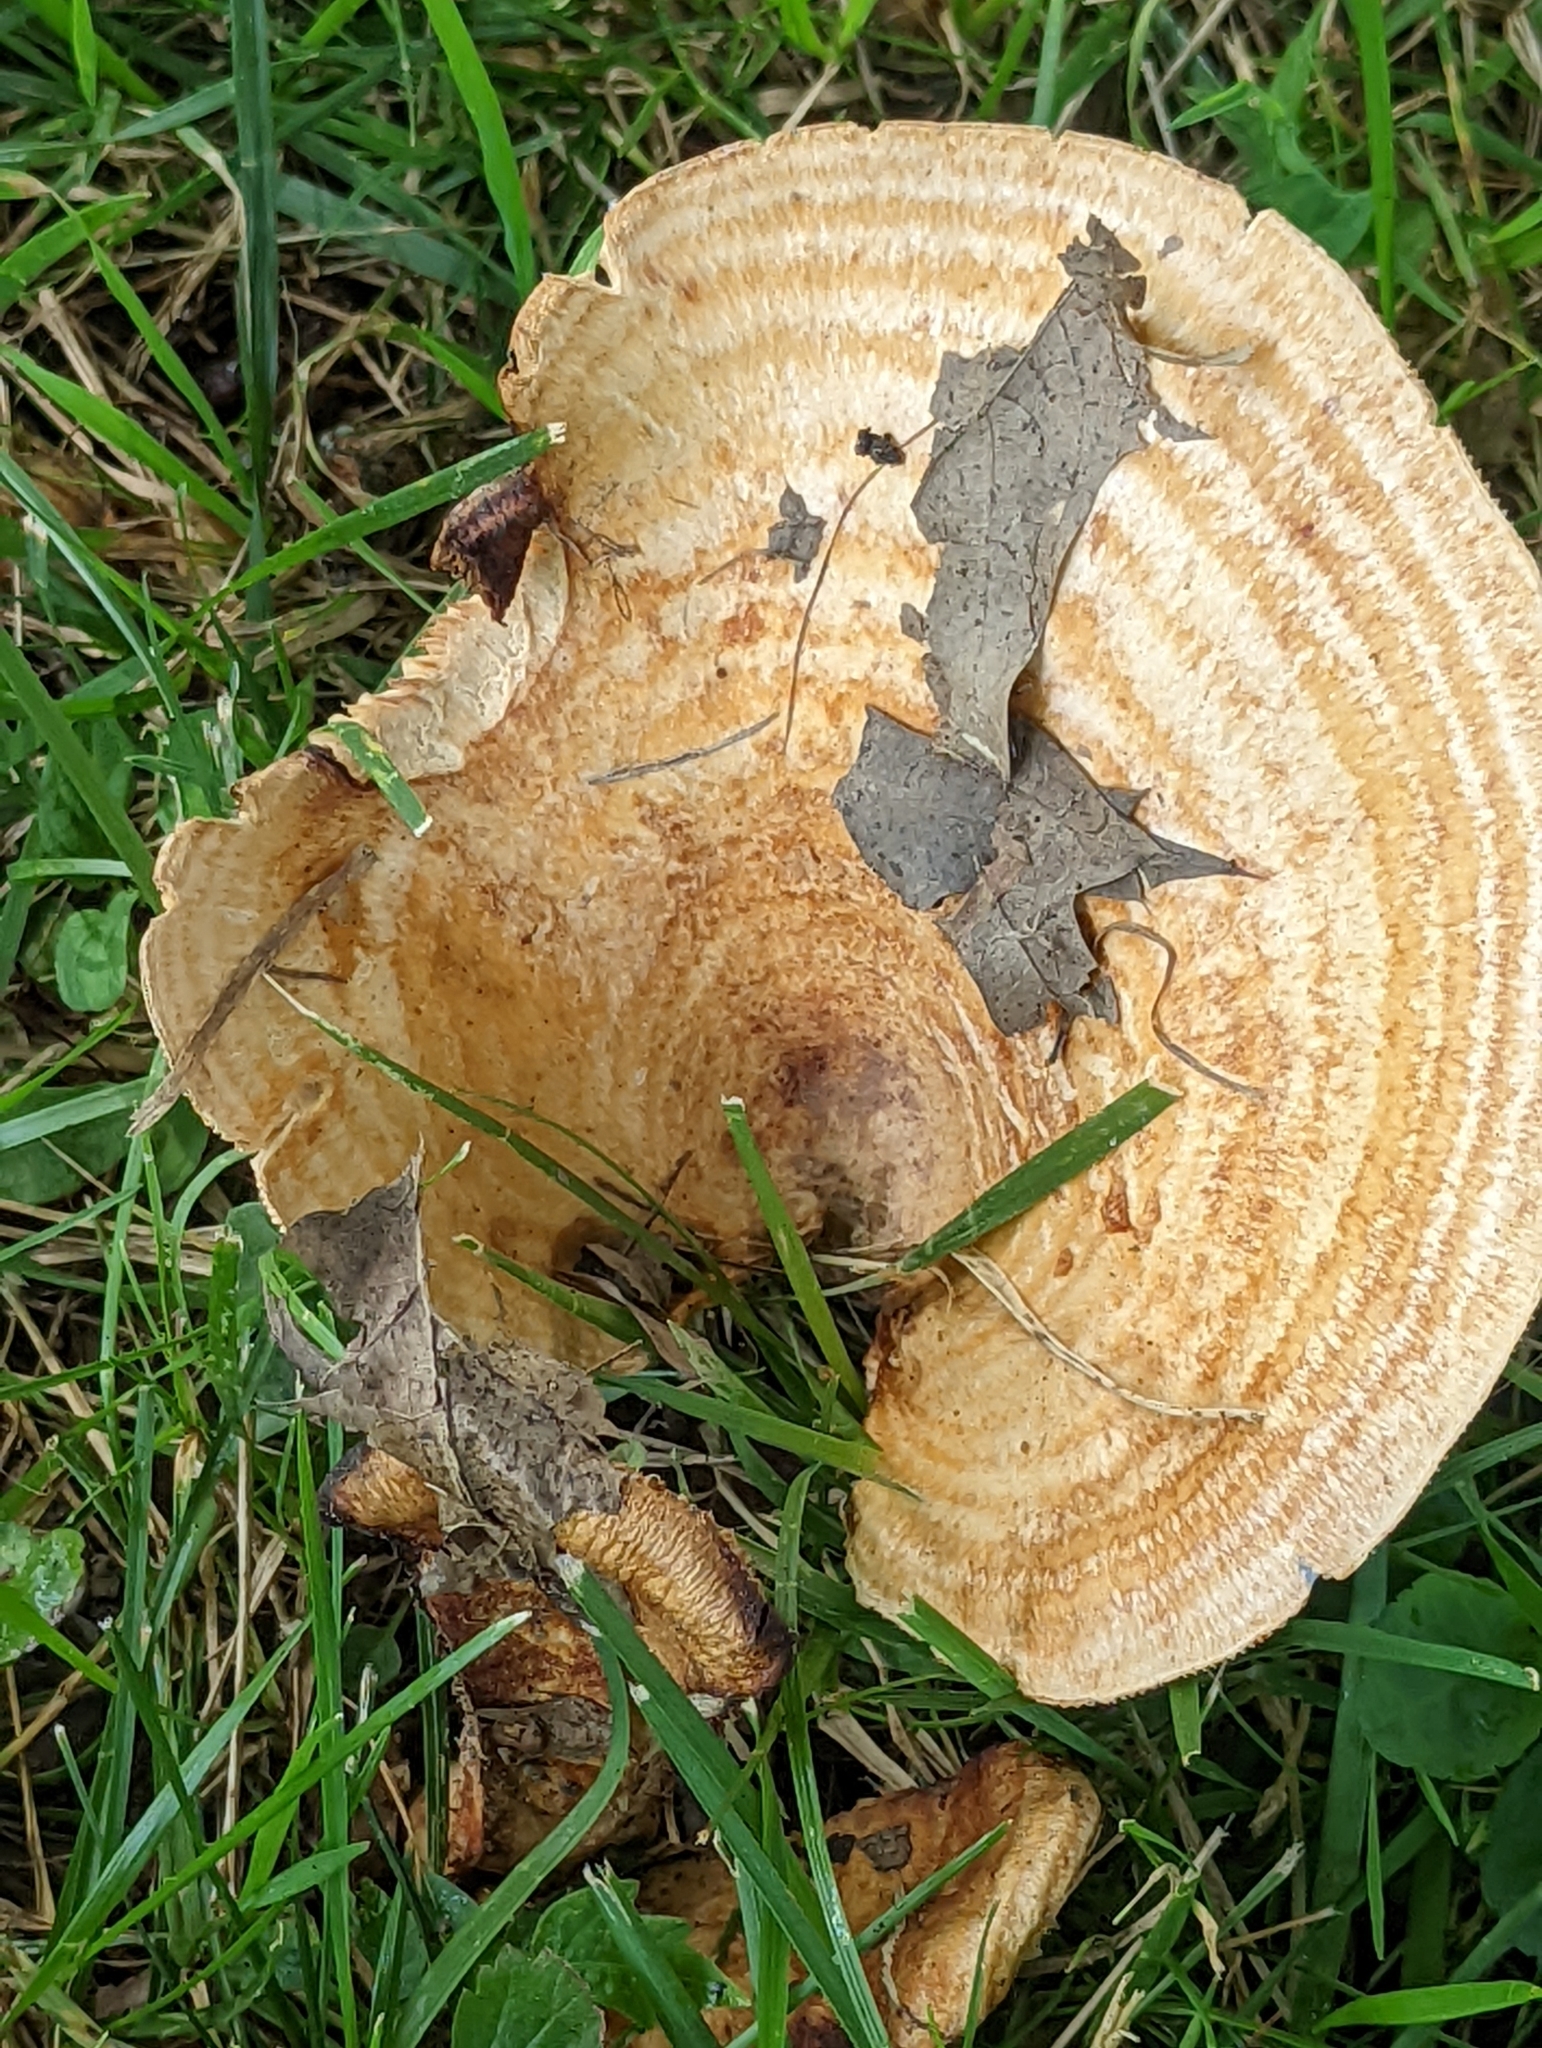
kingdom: Fungi
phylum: Basidiomycota
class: Agaricomycetes
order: Russulales
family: Russulaceae
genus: Lactarius
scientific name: Lactarius psammicola
